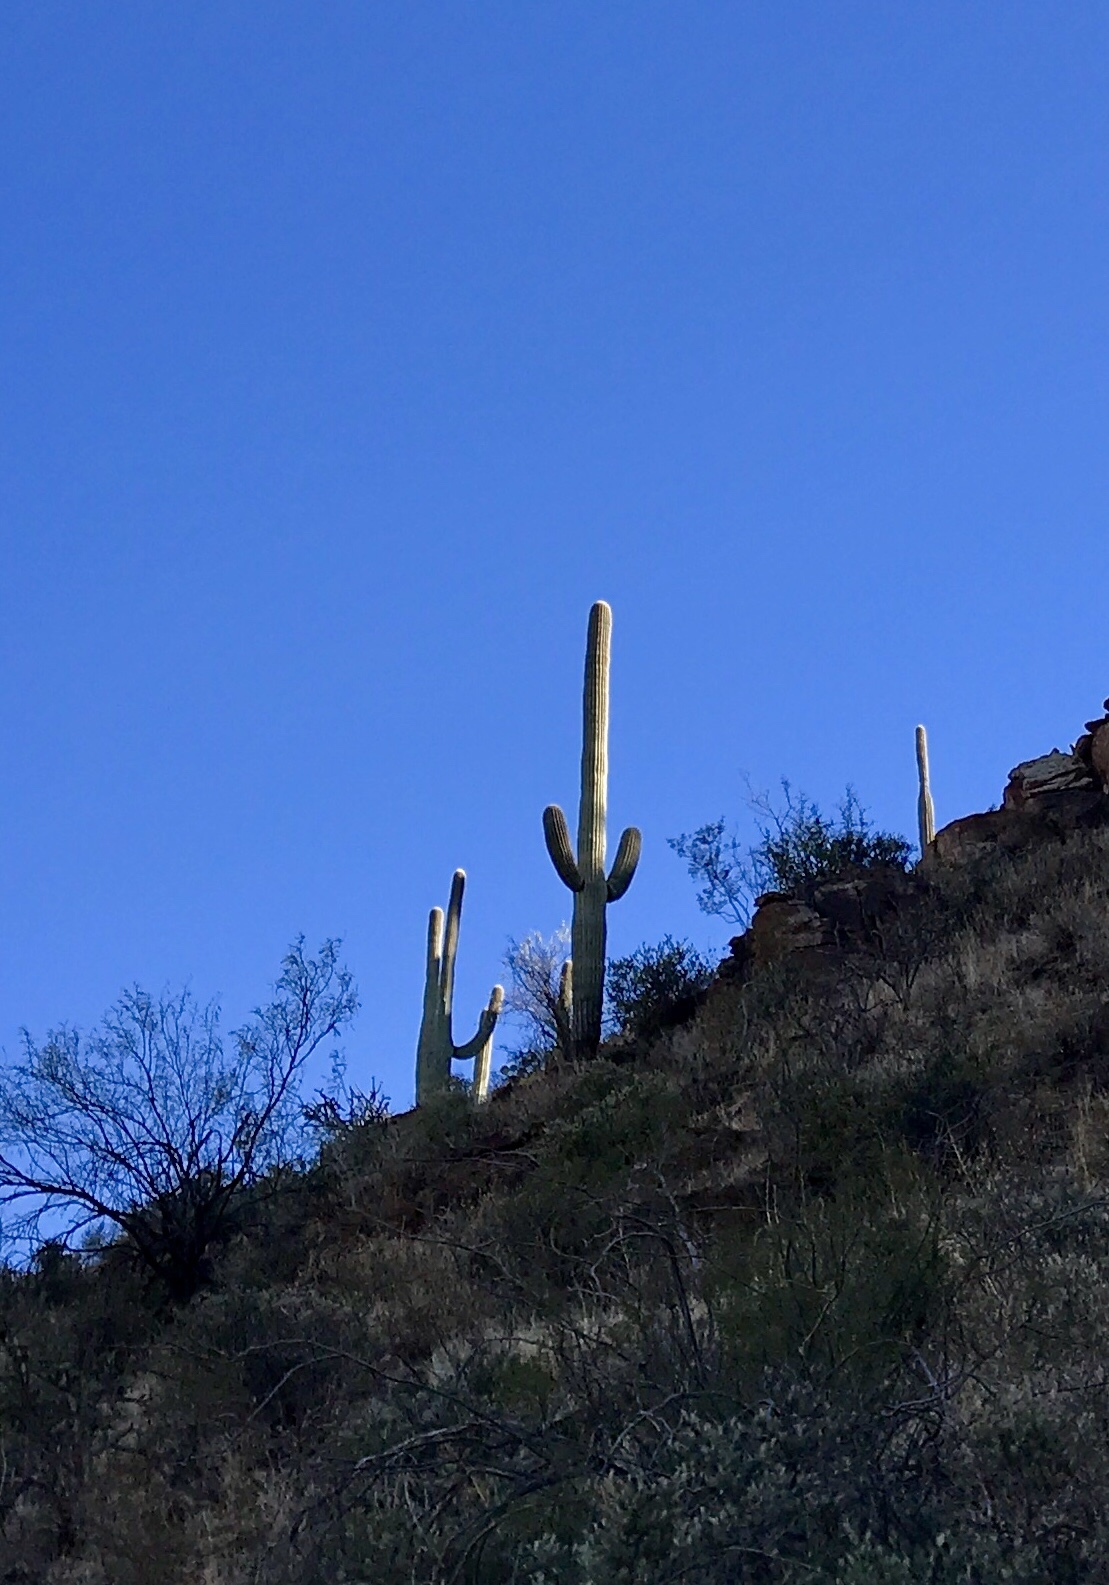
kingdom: Plantae
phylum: Tracheophyta
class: Magnoliopsida
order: Caryophyllales
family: Cactaceae
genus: Carnegiea
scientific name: Carnegiea gigantea
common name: Saguaro
